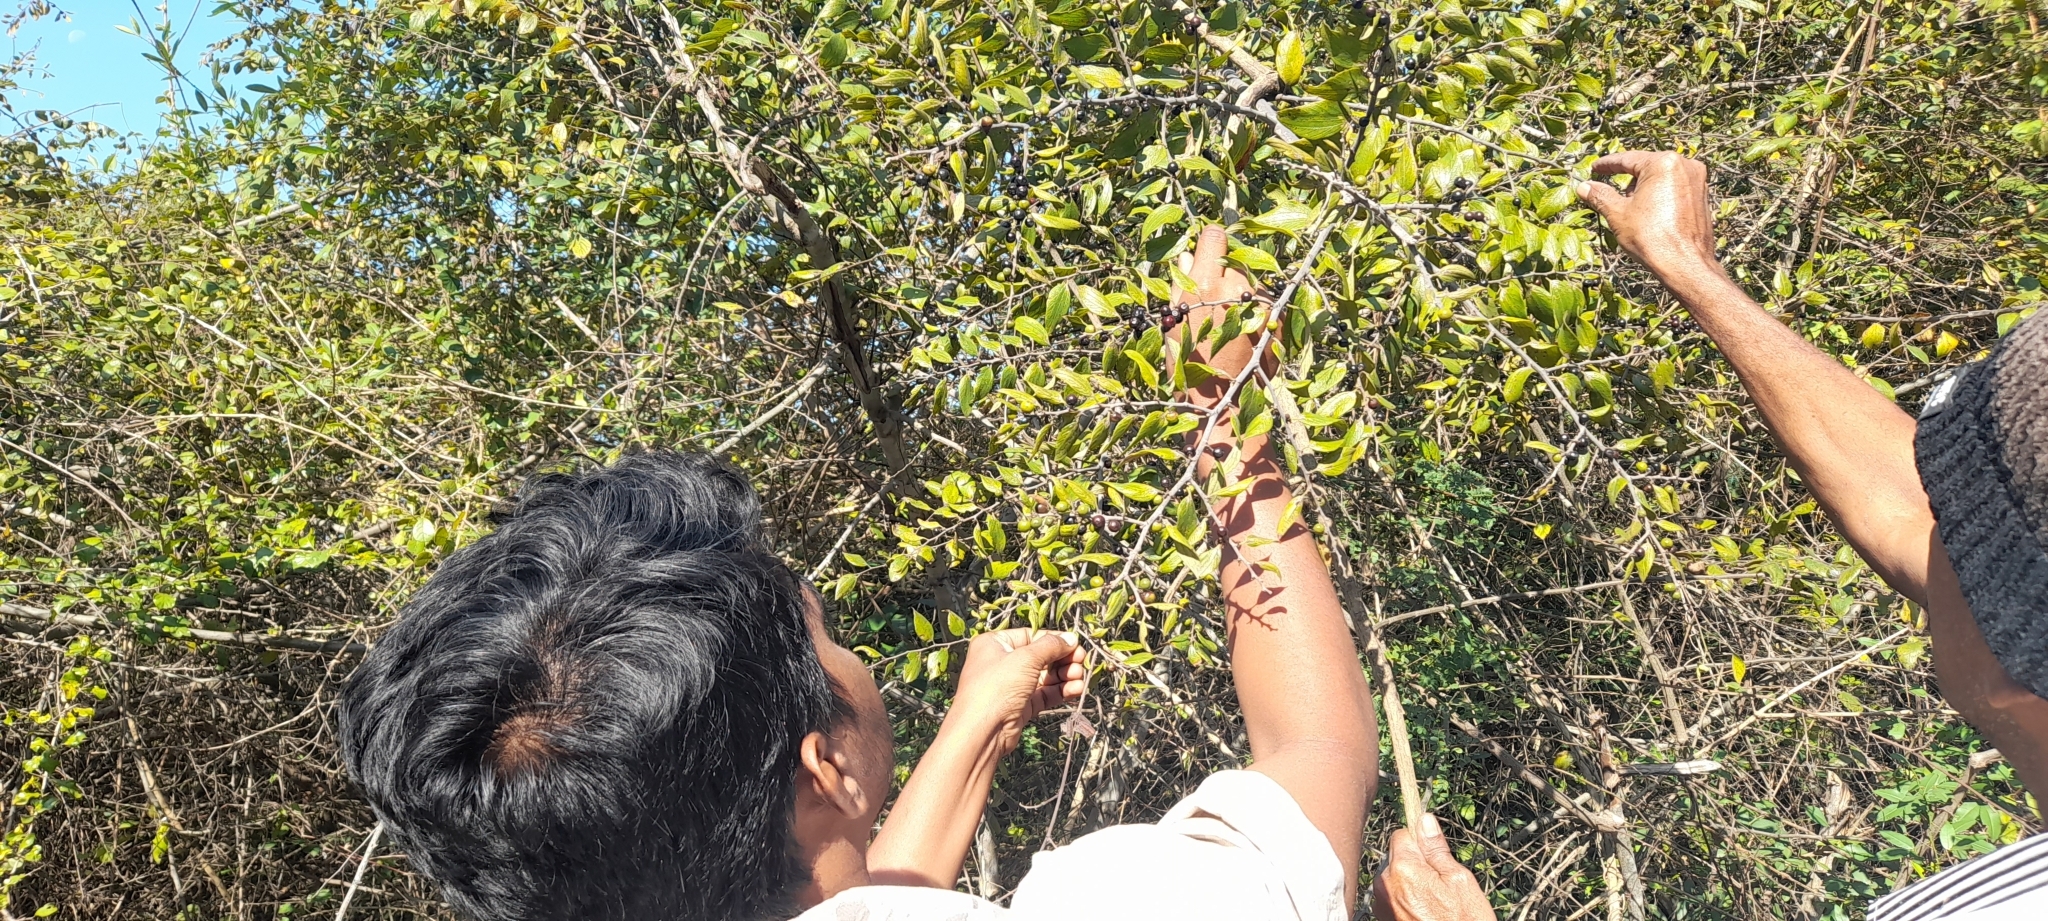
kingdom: Plantae
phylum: Tracheophyta
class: Magnoliopsida
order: Rosales
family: Rhamnaceae
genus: Ziziphus
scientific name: Ziziphus oenopolia
